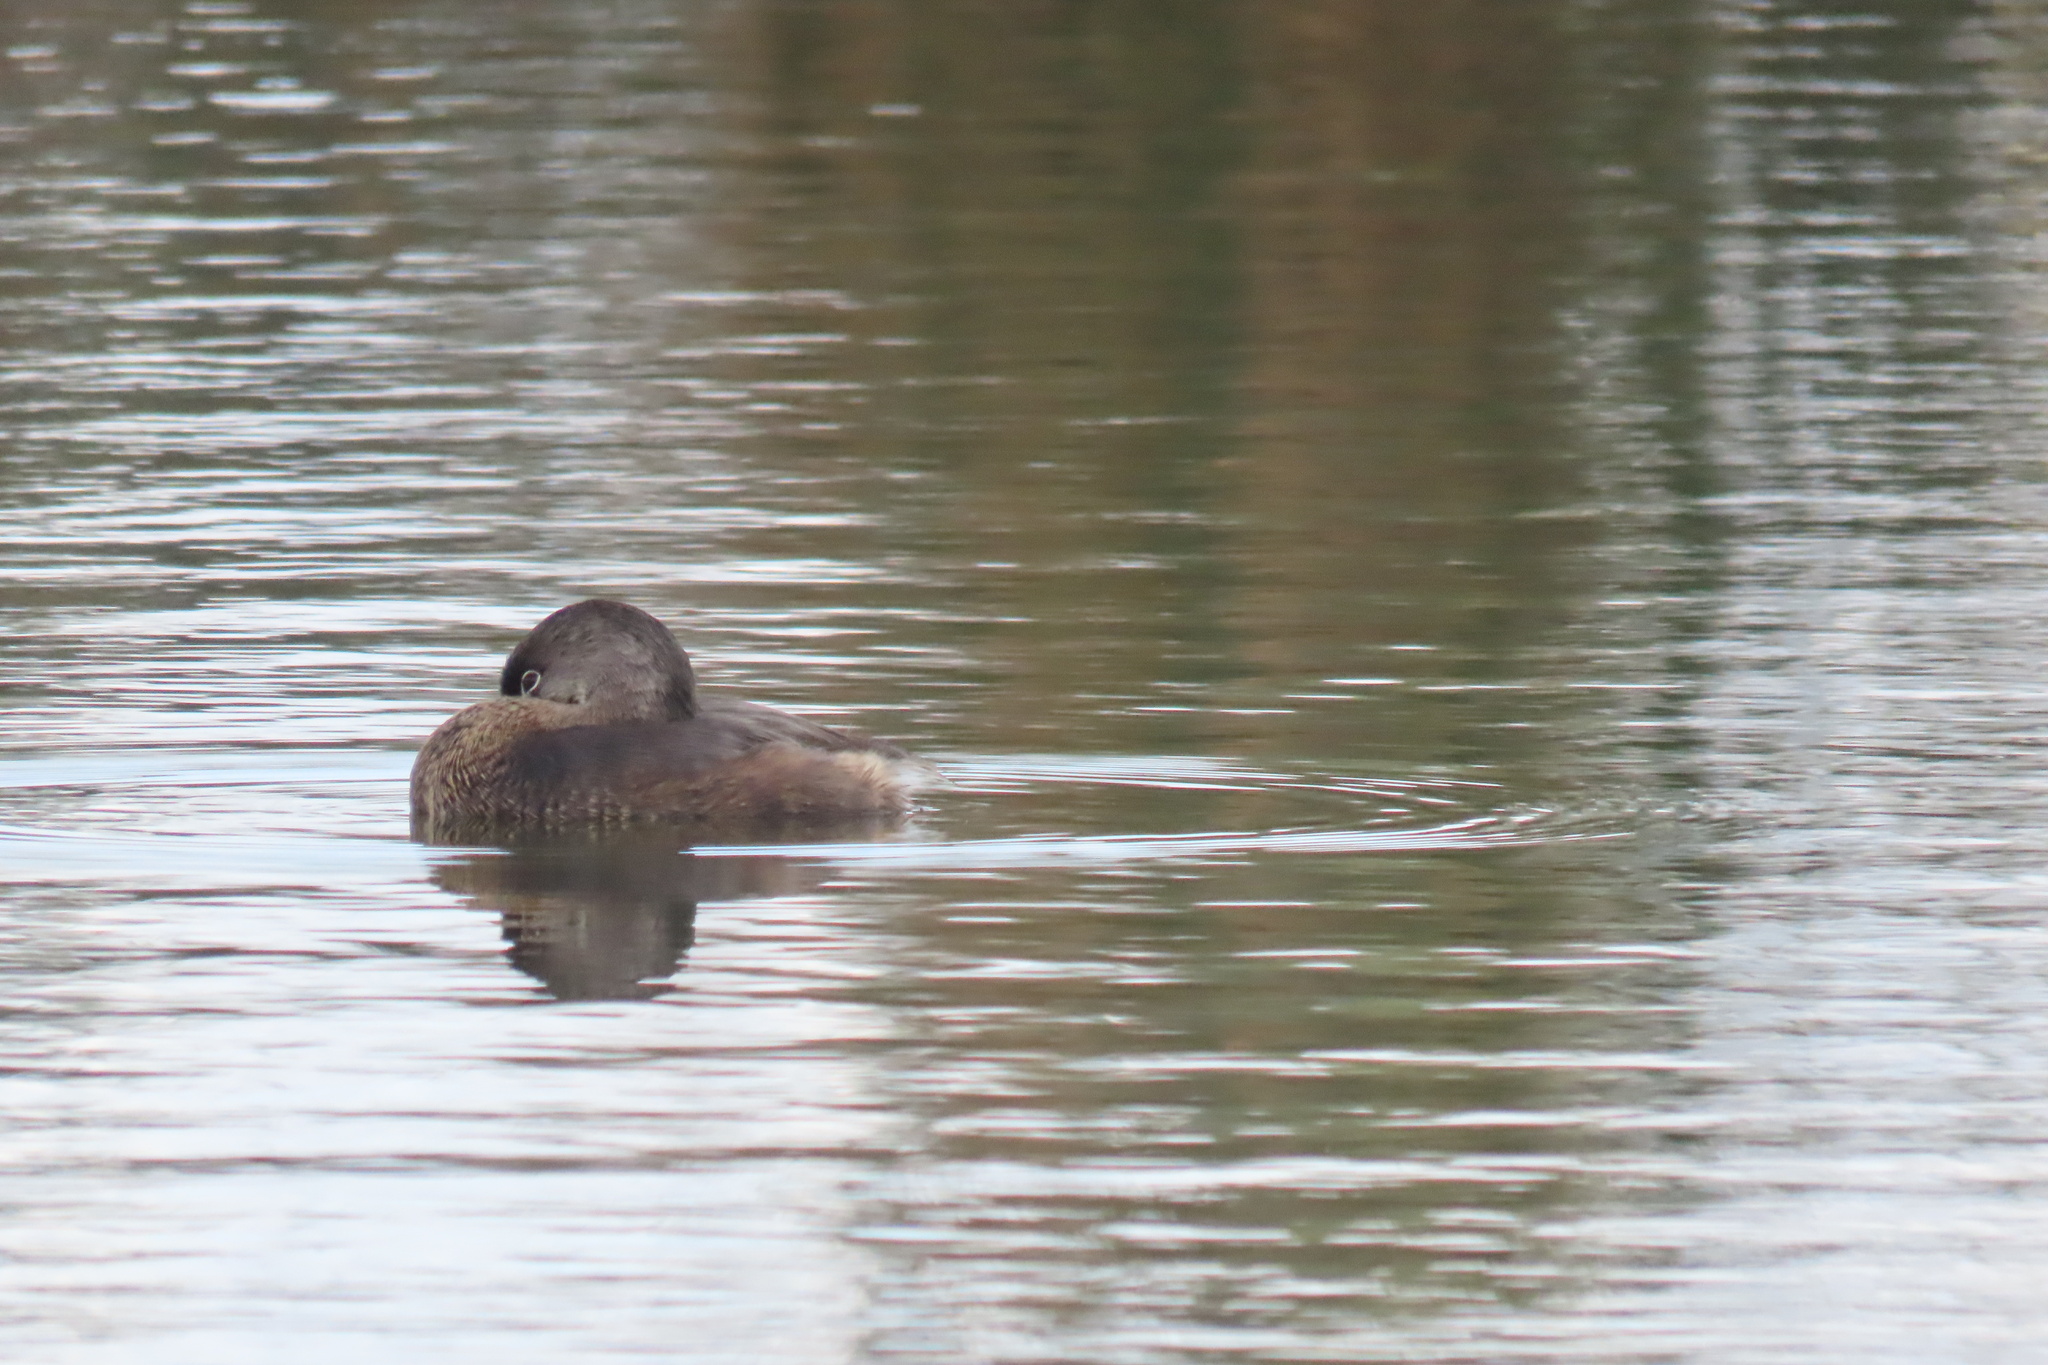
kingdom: Animalia
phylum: Chordata
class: Aves
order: Podicipediformes
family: Podicipedidae
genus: Podilymbus
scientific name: Podilymbus podiceps
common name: Pied-billed grebe
